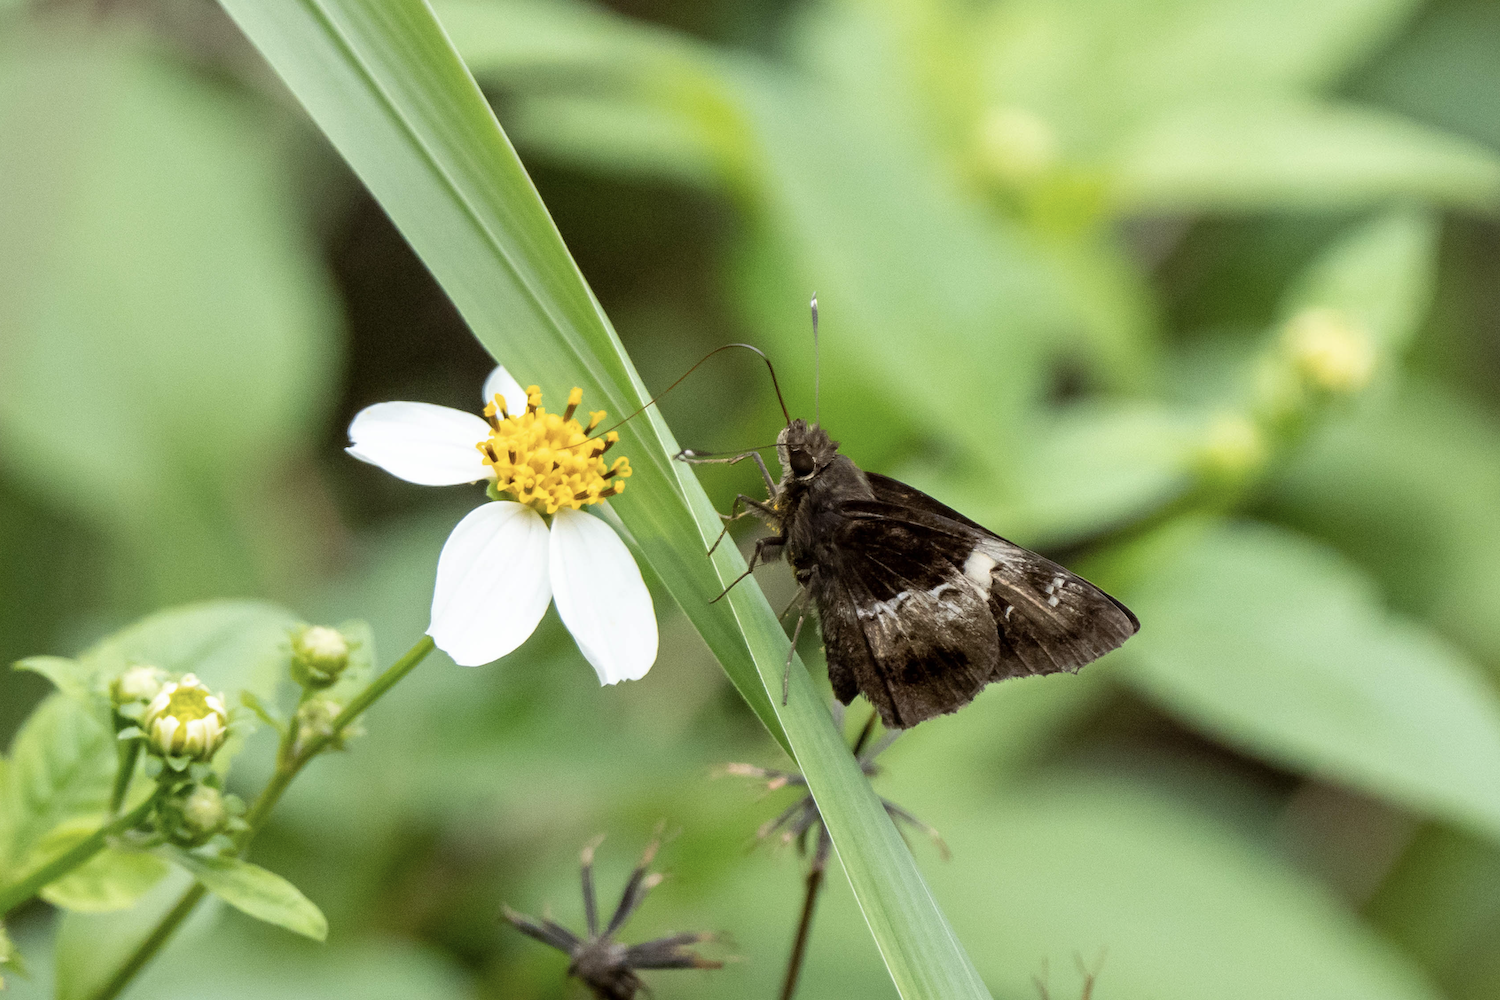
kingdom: Animalia
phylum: Arthropoda
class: Insecta
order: Lepidoptera
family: Hesperiidae
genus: Hyarotis
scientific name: Hyarotis adrastus
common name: Tree flitter
